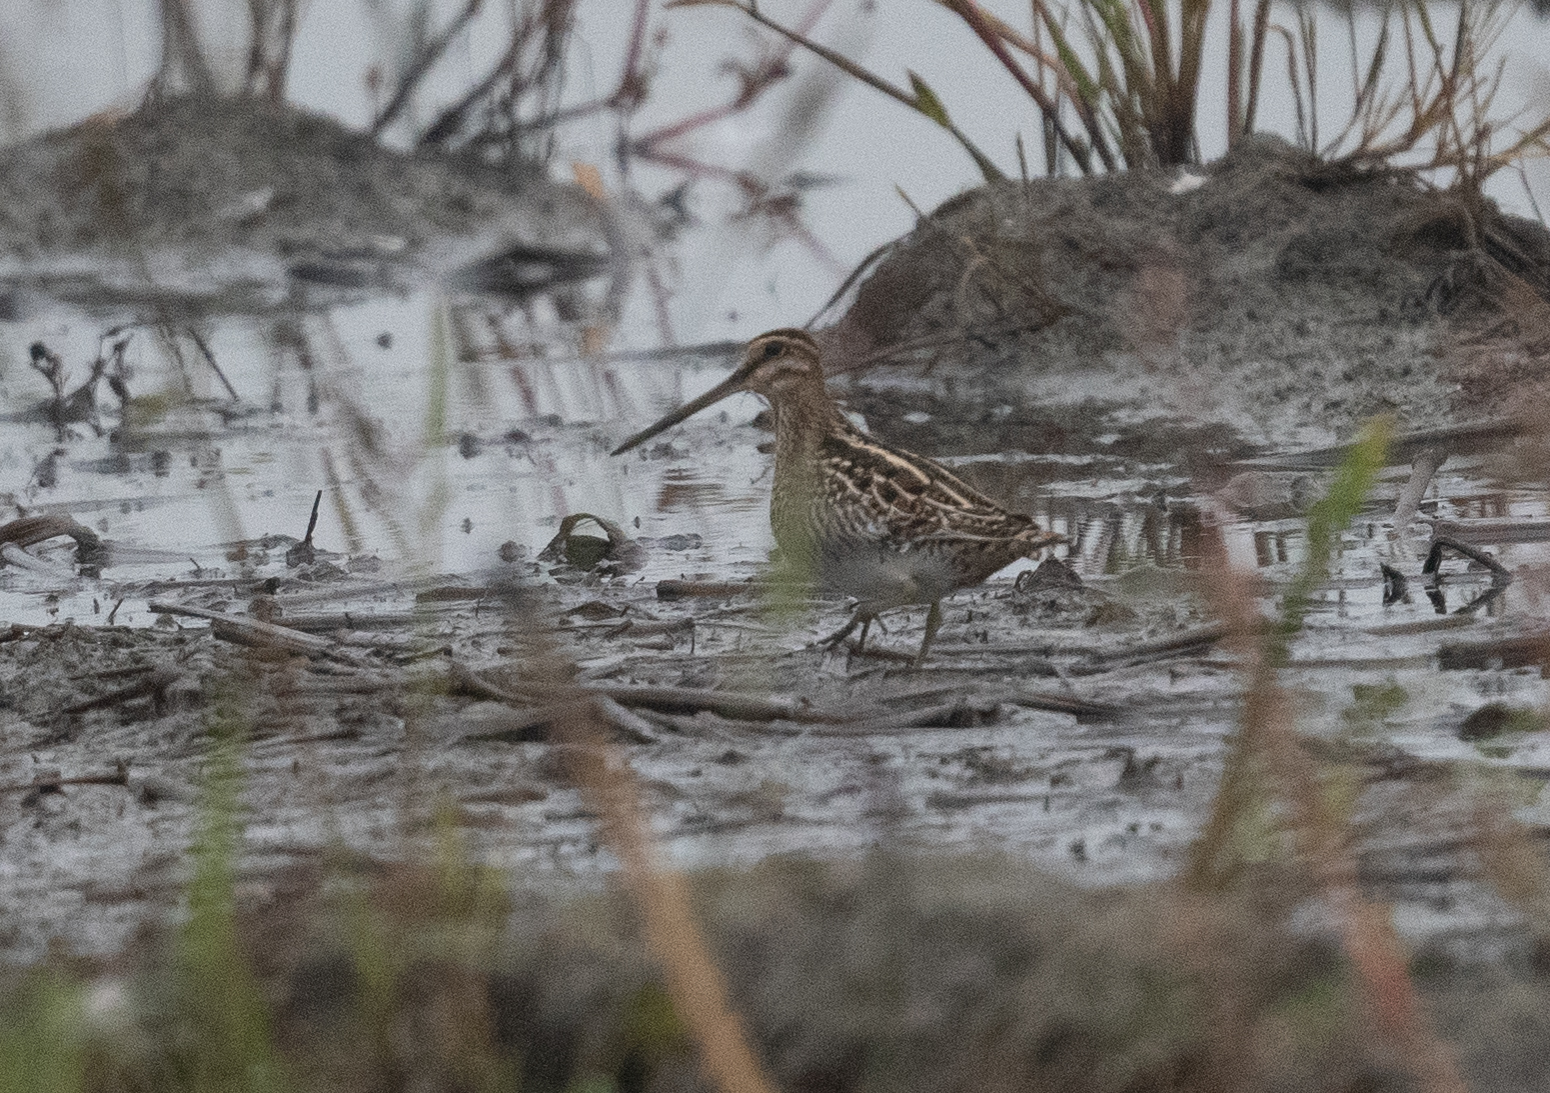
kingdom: Animalia
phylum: Chordata
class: Aves
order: Charadriiformes
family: Scolopacidae
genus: Gallinago
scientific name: Gallinago delicata
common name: Wilson's snipe
